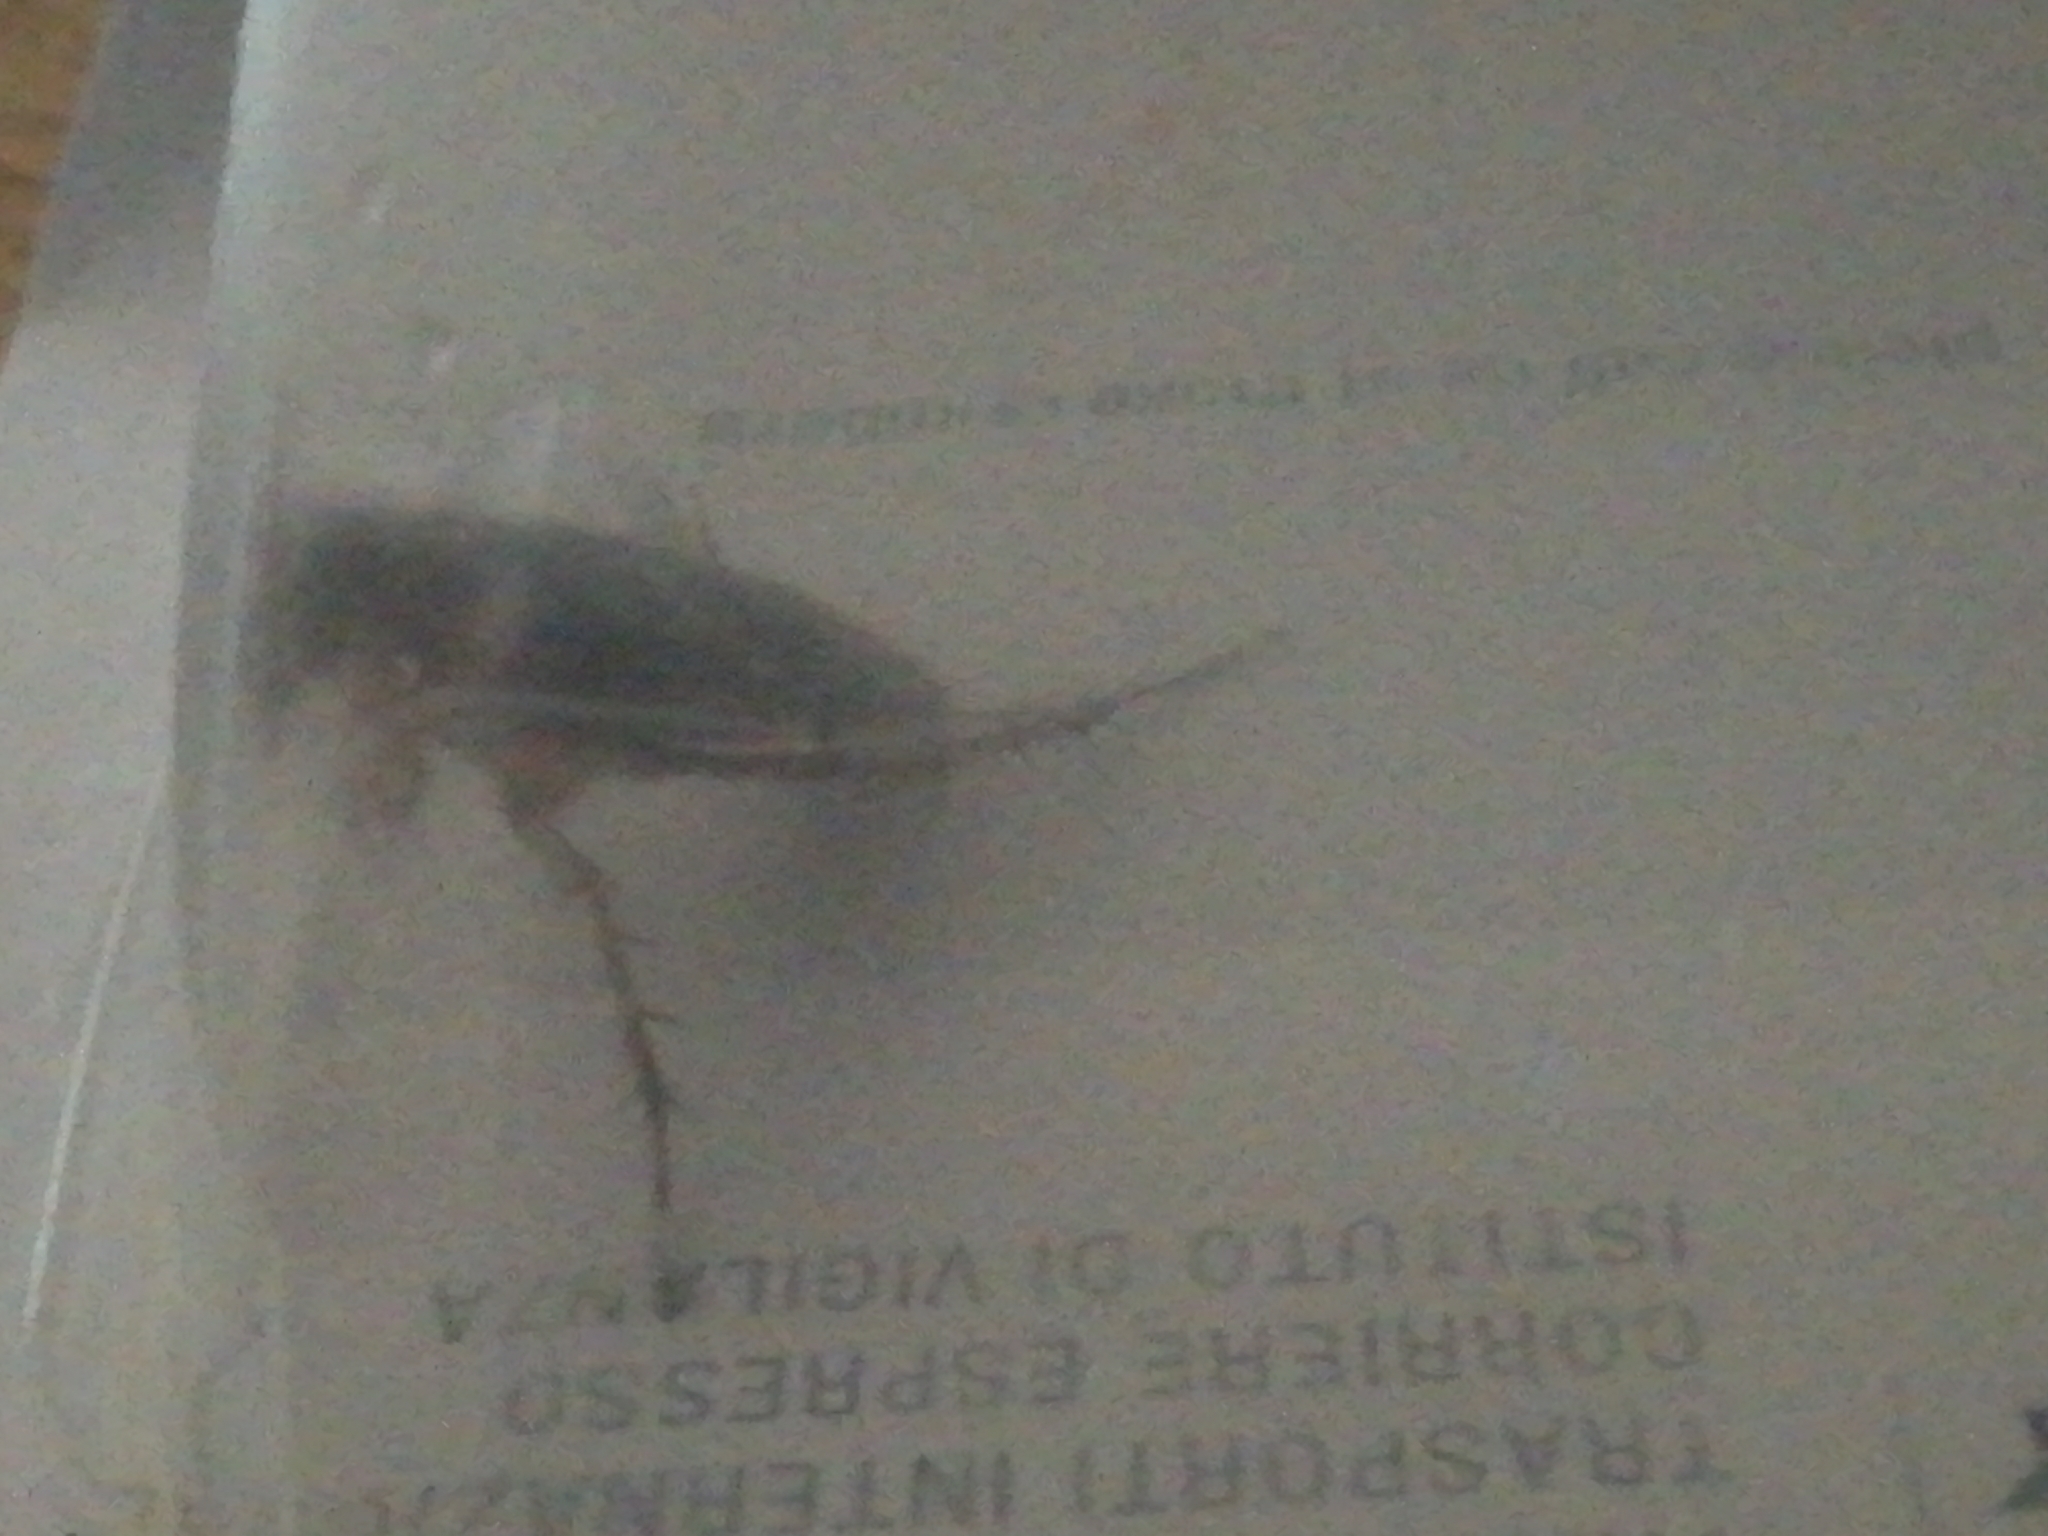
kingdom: Animalia
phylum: Arthropoda
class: Insecta
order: Blattodea
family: Blattidae
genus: Periplaneta
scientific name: Periplaneta americana
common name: American cockroach
